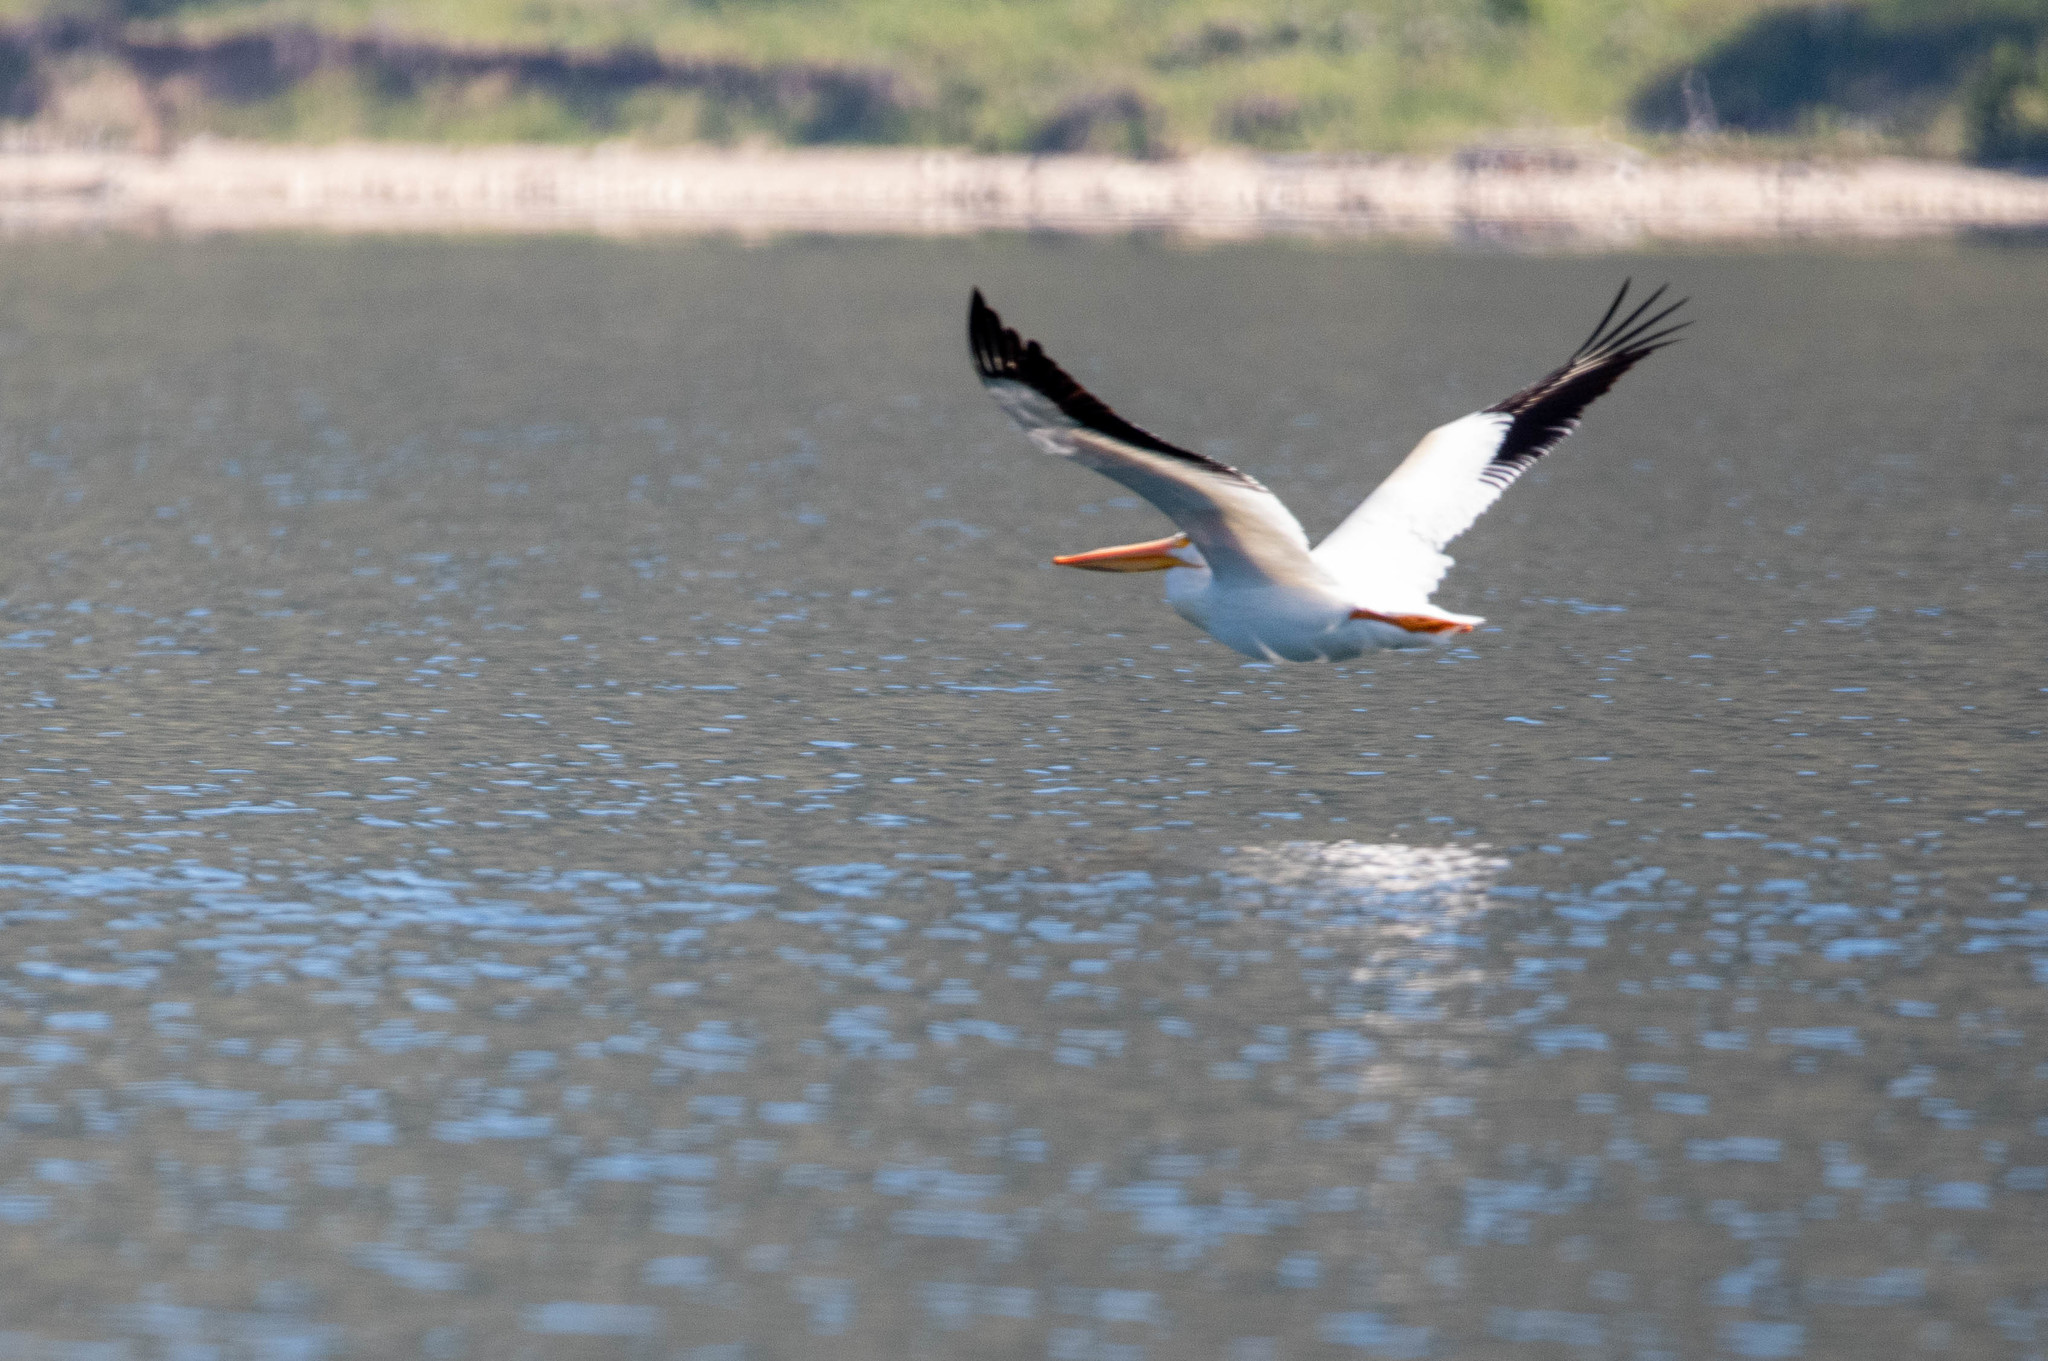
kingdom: Animalia
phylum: Chordata
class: Aves
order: Pelecaniformes
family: Pelecanidae
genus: Pelecanus
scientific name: Pelecanus erythrorhynchos
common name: American white pelican
